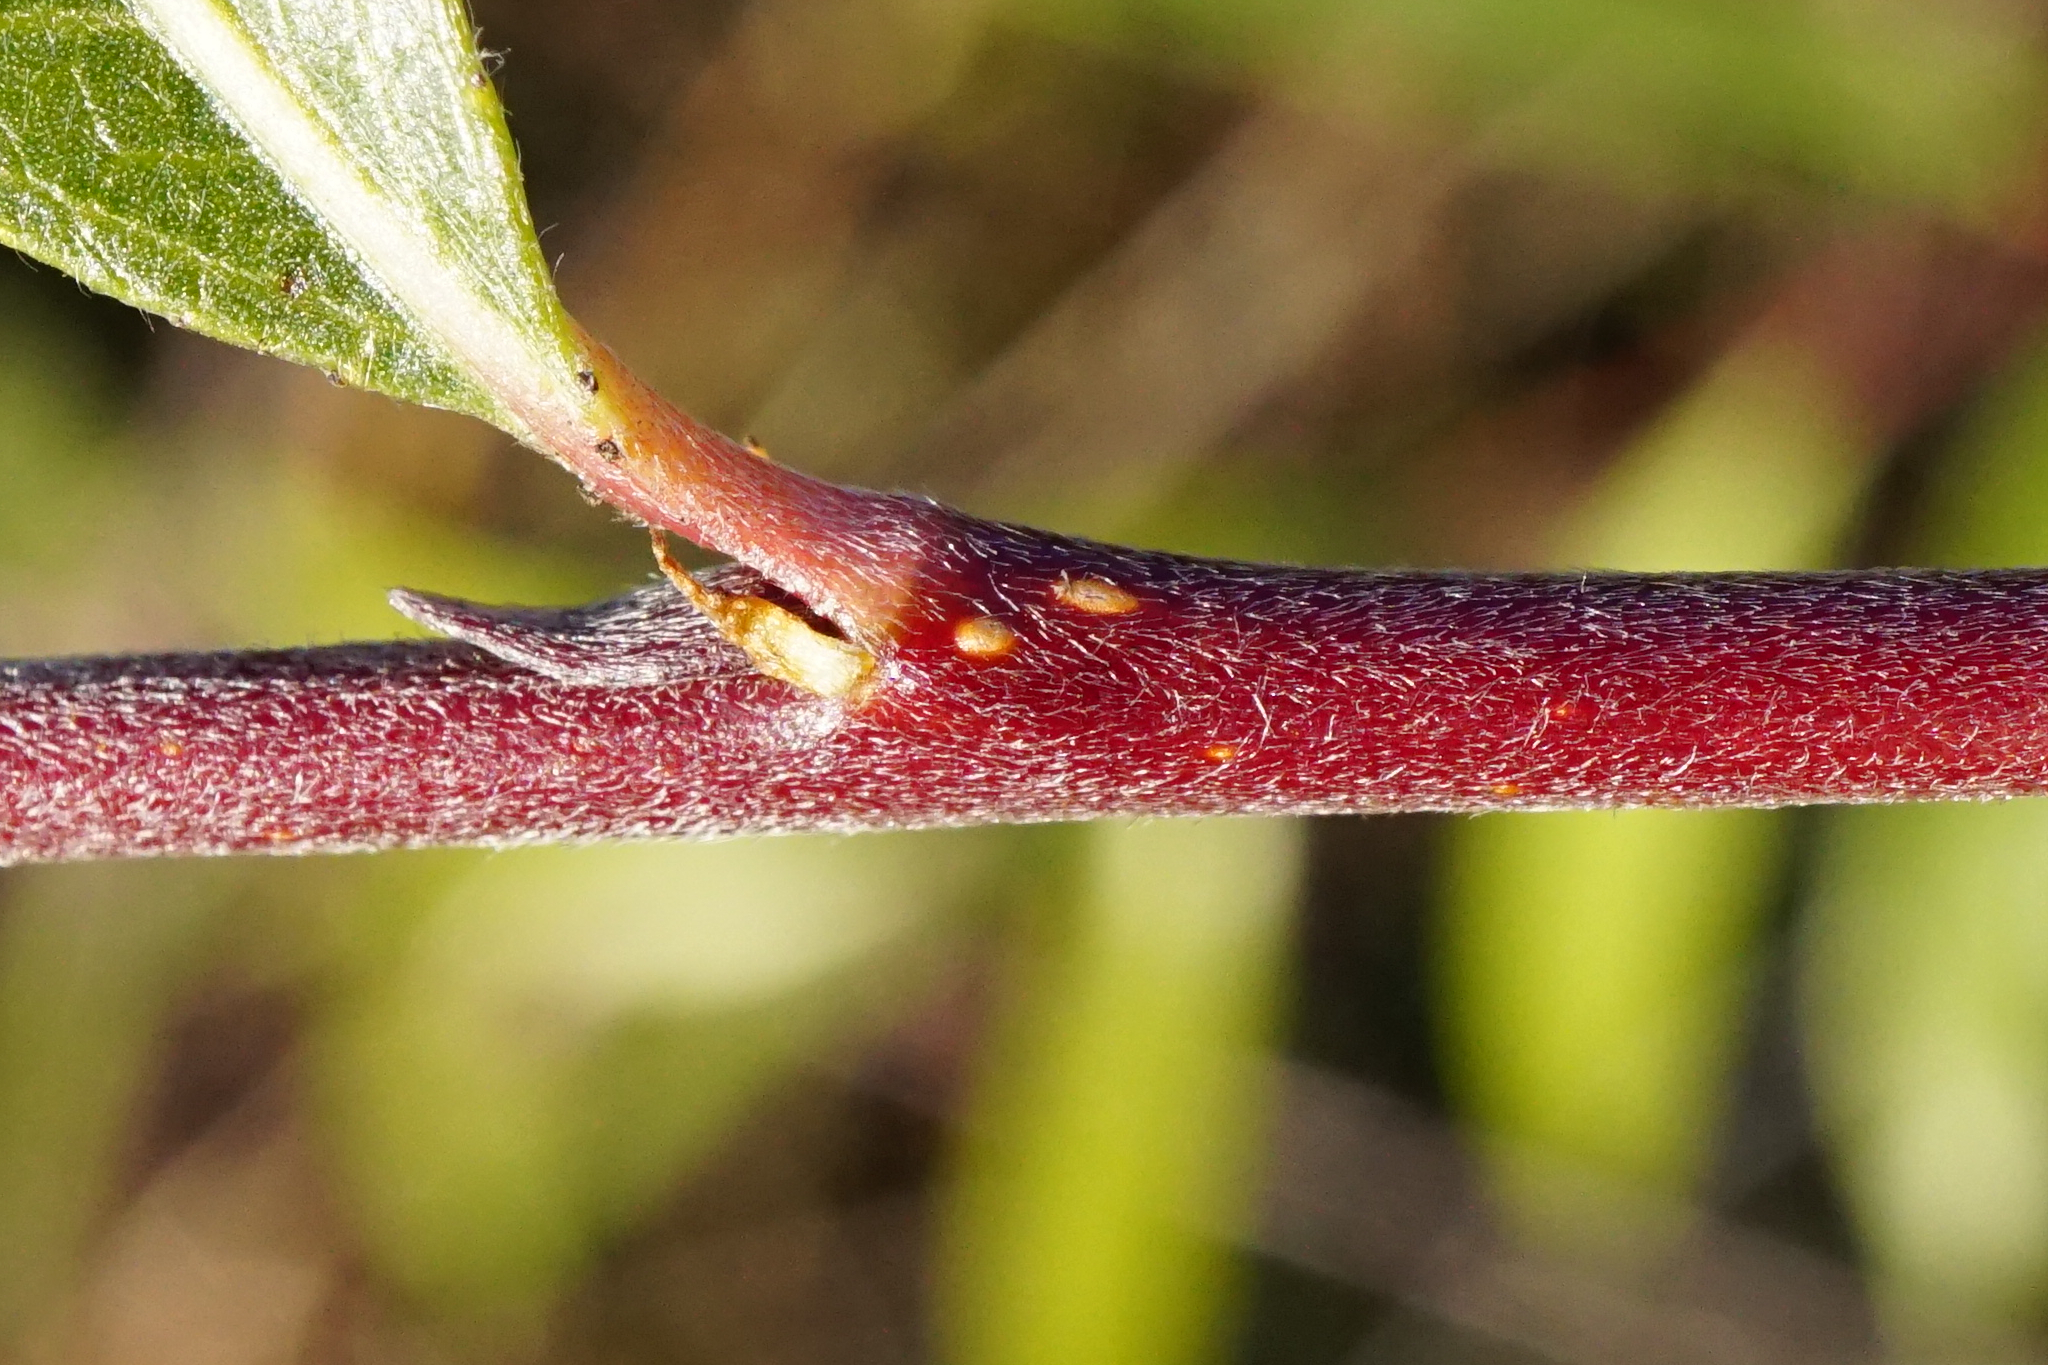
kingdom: Plantae
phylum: Tracheophyta
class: Magnoliopsida
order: Malpighiales
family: Salicaceae
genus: Salix
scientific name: Salix alba
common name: White willow
